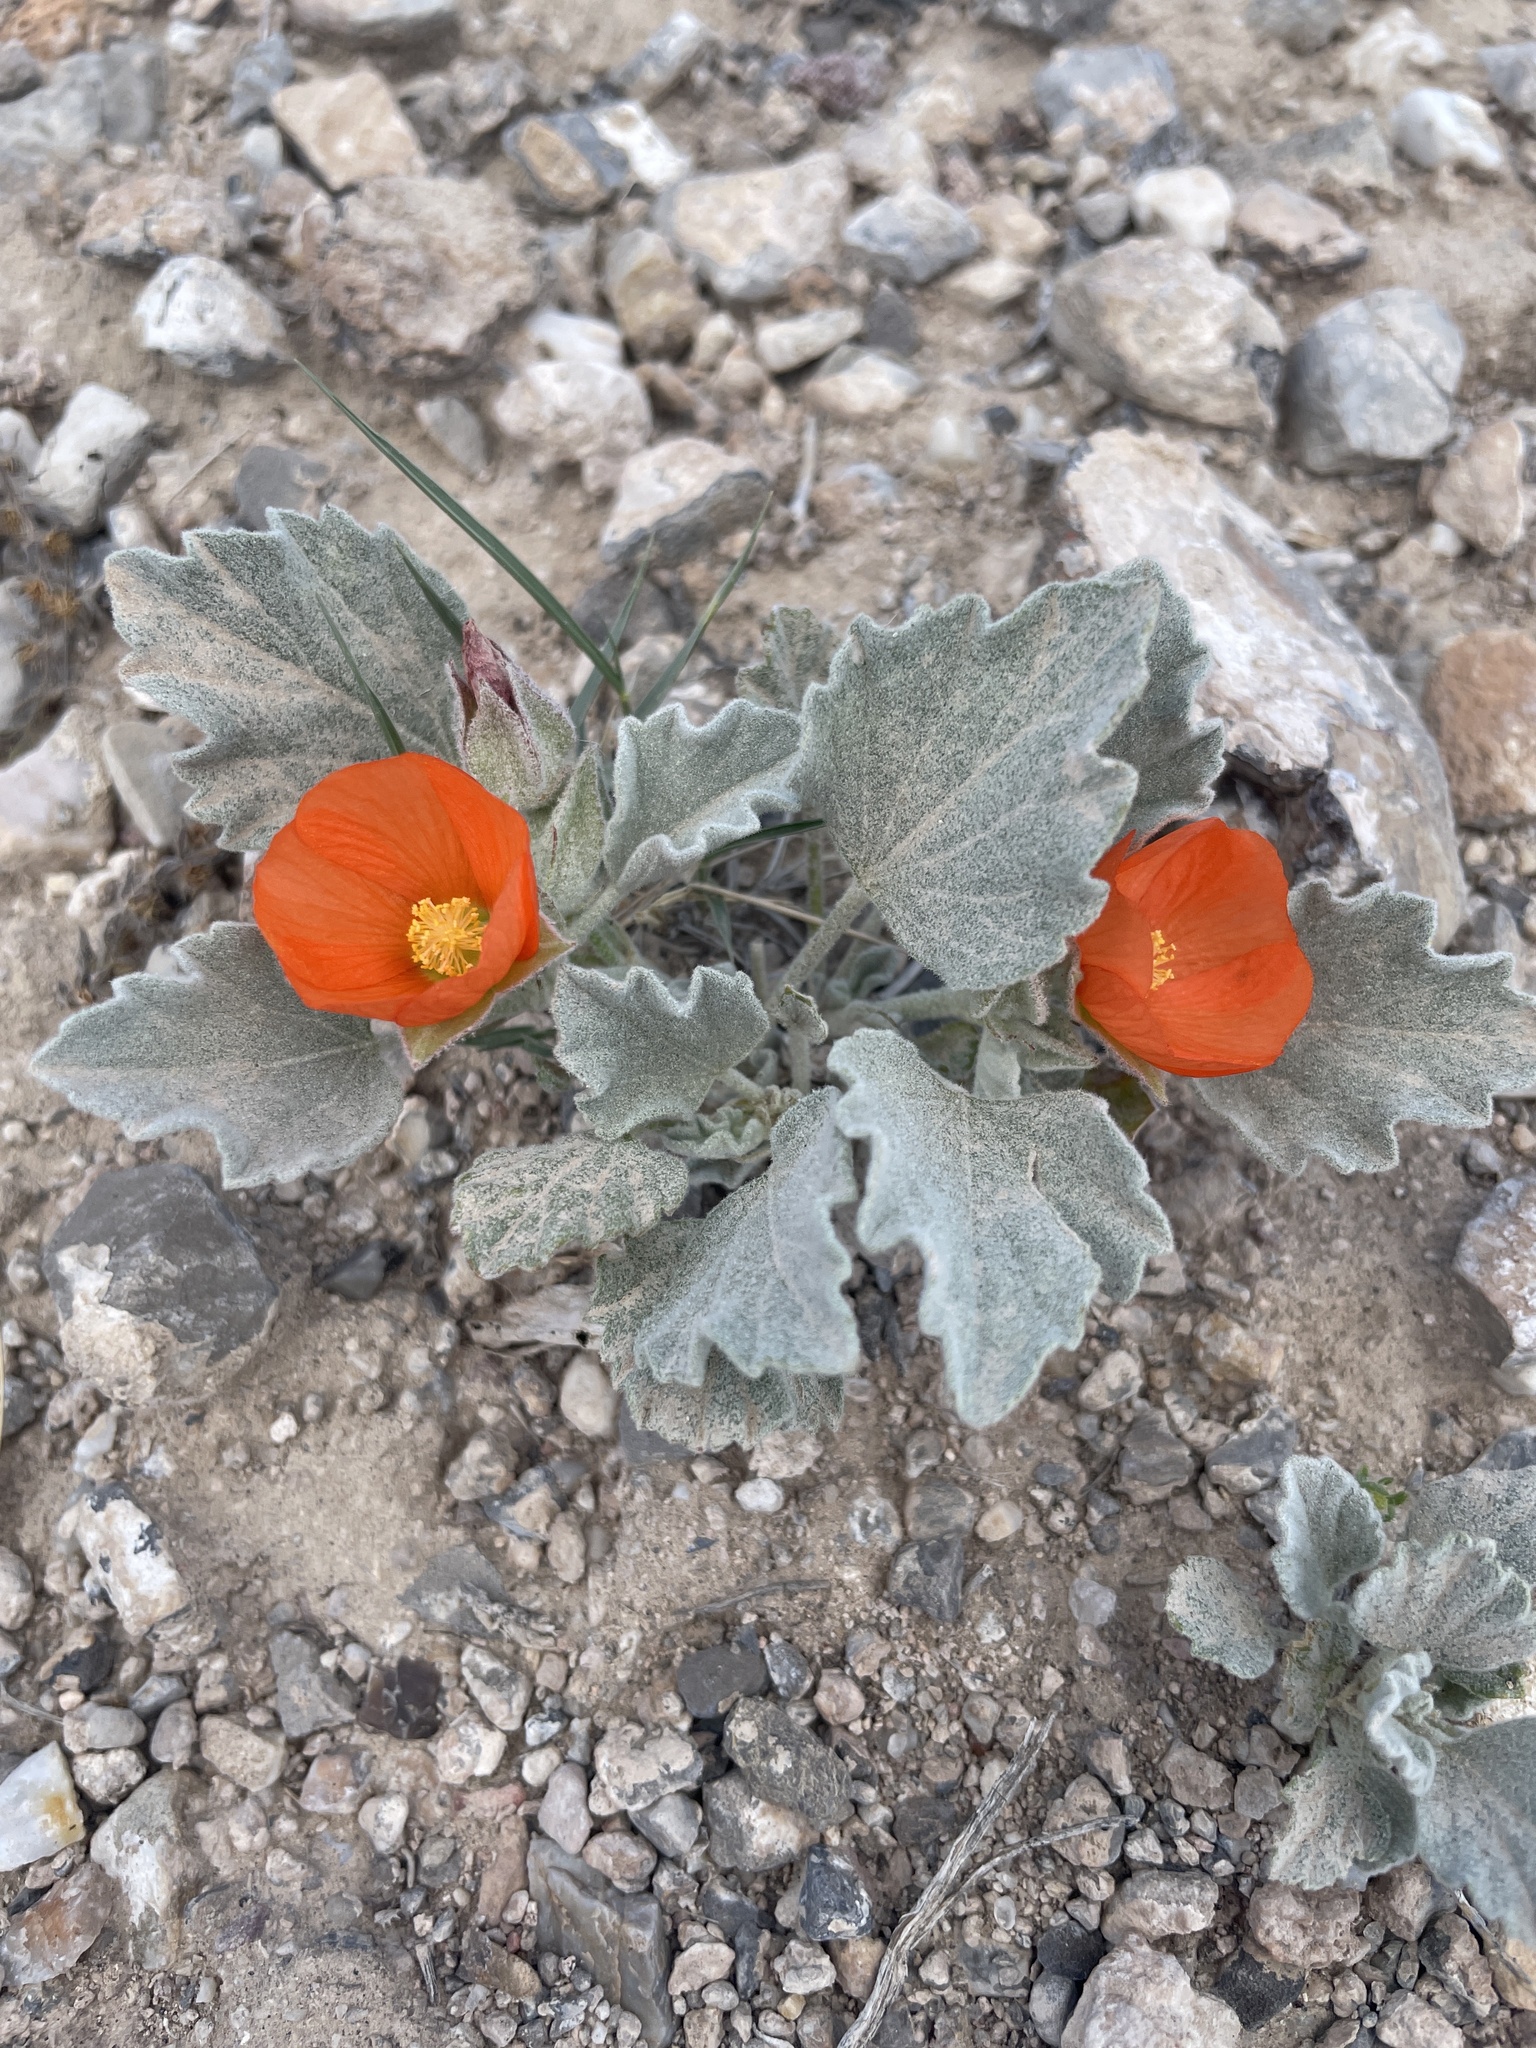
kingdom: Plantae
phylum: Tracheophyta
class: Magnoliopsida
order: Malvales
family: Malvaceae
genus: Sphaeralcea
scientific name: Sphaeralcea caespitosa
